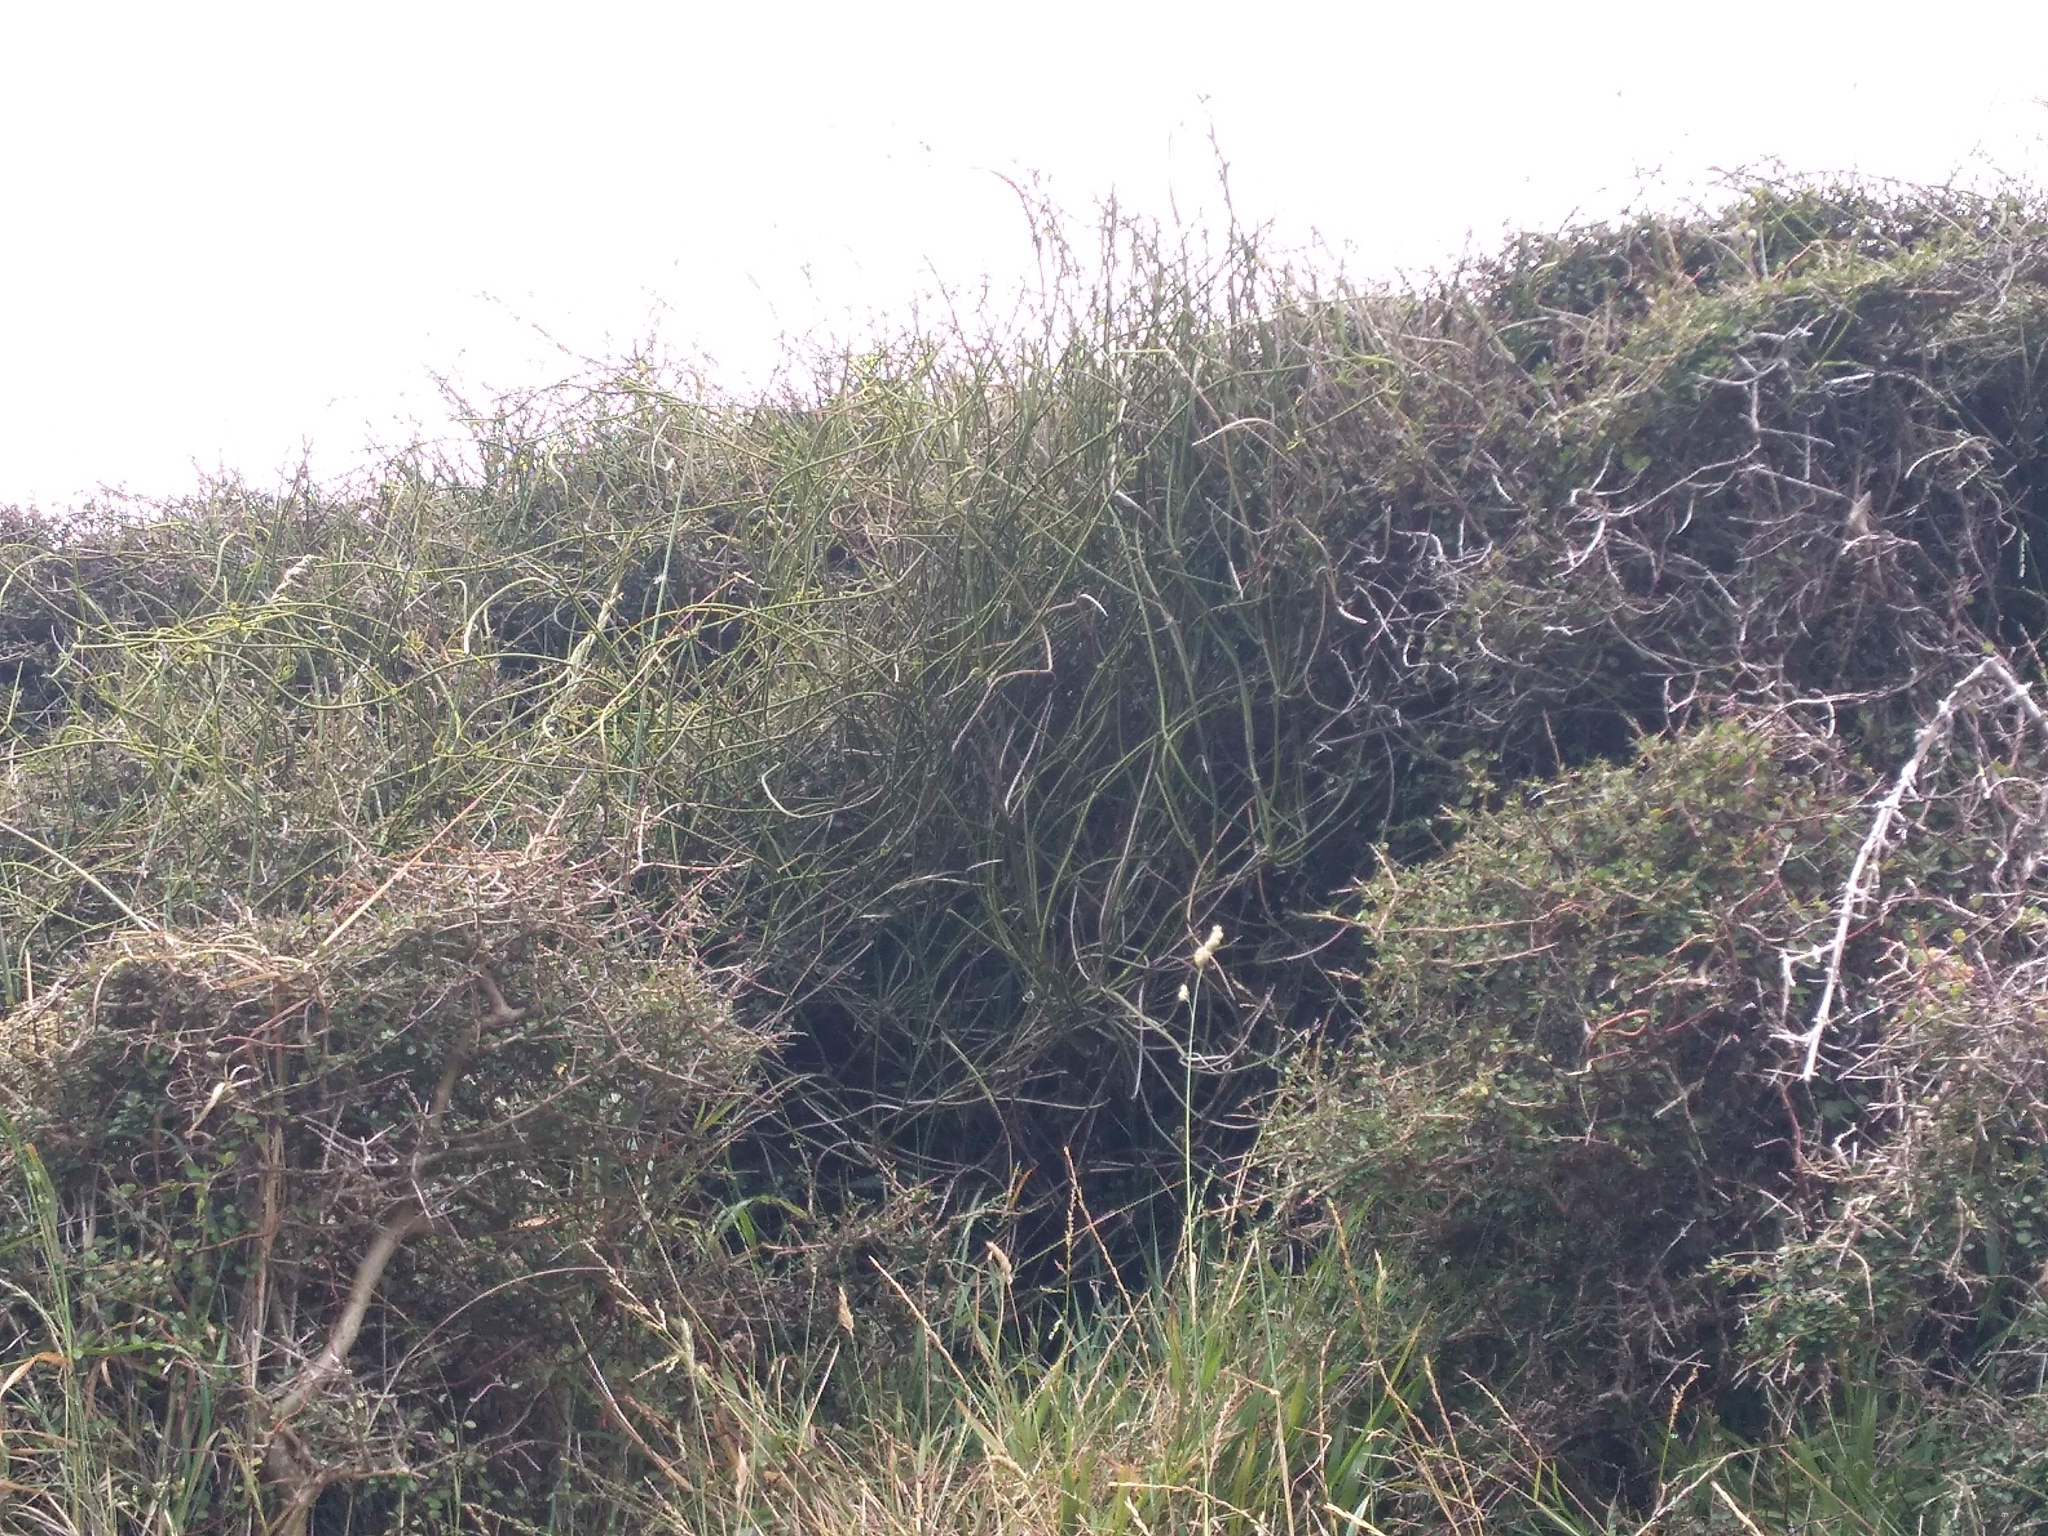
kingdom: Plantae
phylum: Tracheophyta
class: Magnoliopsida
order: Ranunculales
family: Ranunculaceae
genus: Clematis
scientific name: Clematis afoliata
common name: Rush-stem clematis
